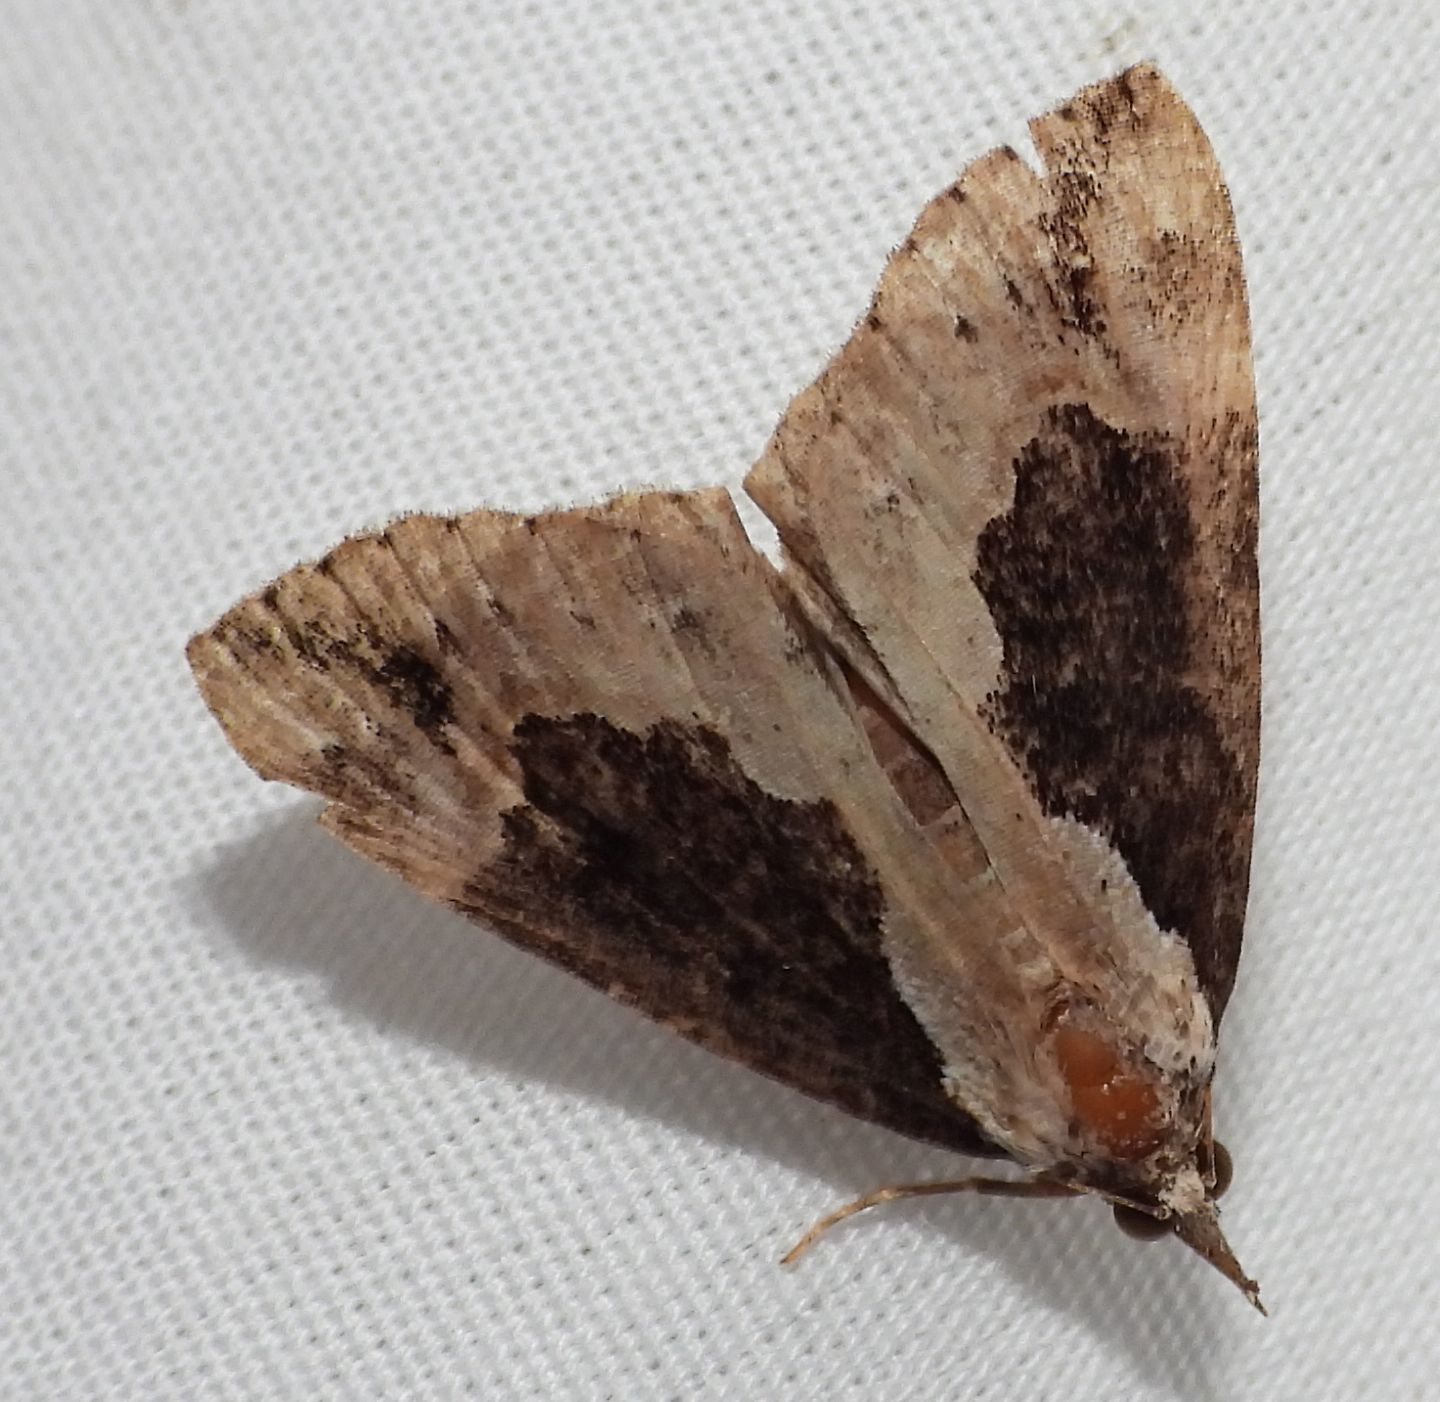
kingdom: Animalia
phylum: Arthropoda
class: Insecta
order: Lepidoptera
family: Erebidae
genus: Hypena
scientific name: Hypena baltimoralis
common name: Baltimore snout
